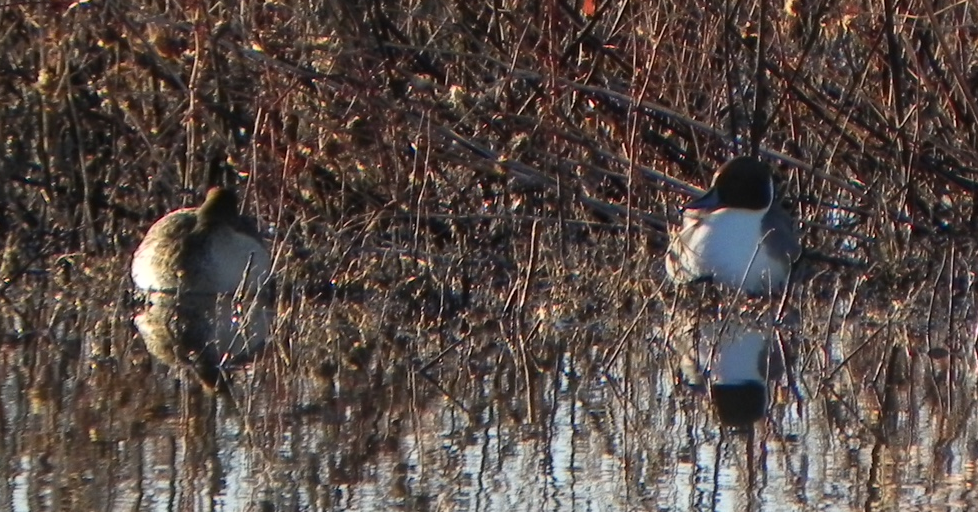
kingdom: Animalia
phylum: Chordata
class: Aves
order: Anseriformes
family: Anatidae
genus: Anas
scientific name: Anas acuta
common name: Northern pintail
